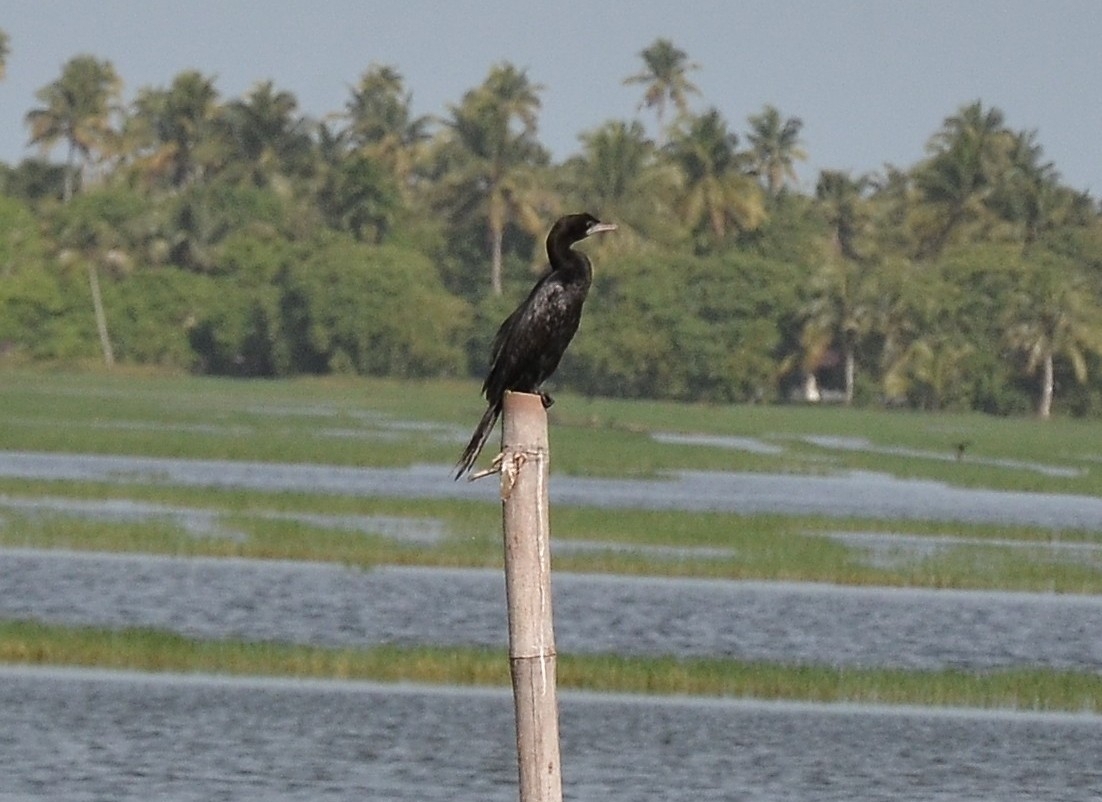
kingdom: Animalia
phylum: Chordata
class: Aves
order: Suliformes
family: Phalacrocoracidae
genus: Microcarbo
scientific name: Microcarbo niger
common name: Little cormorant
